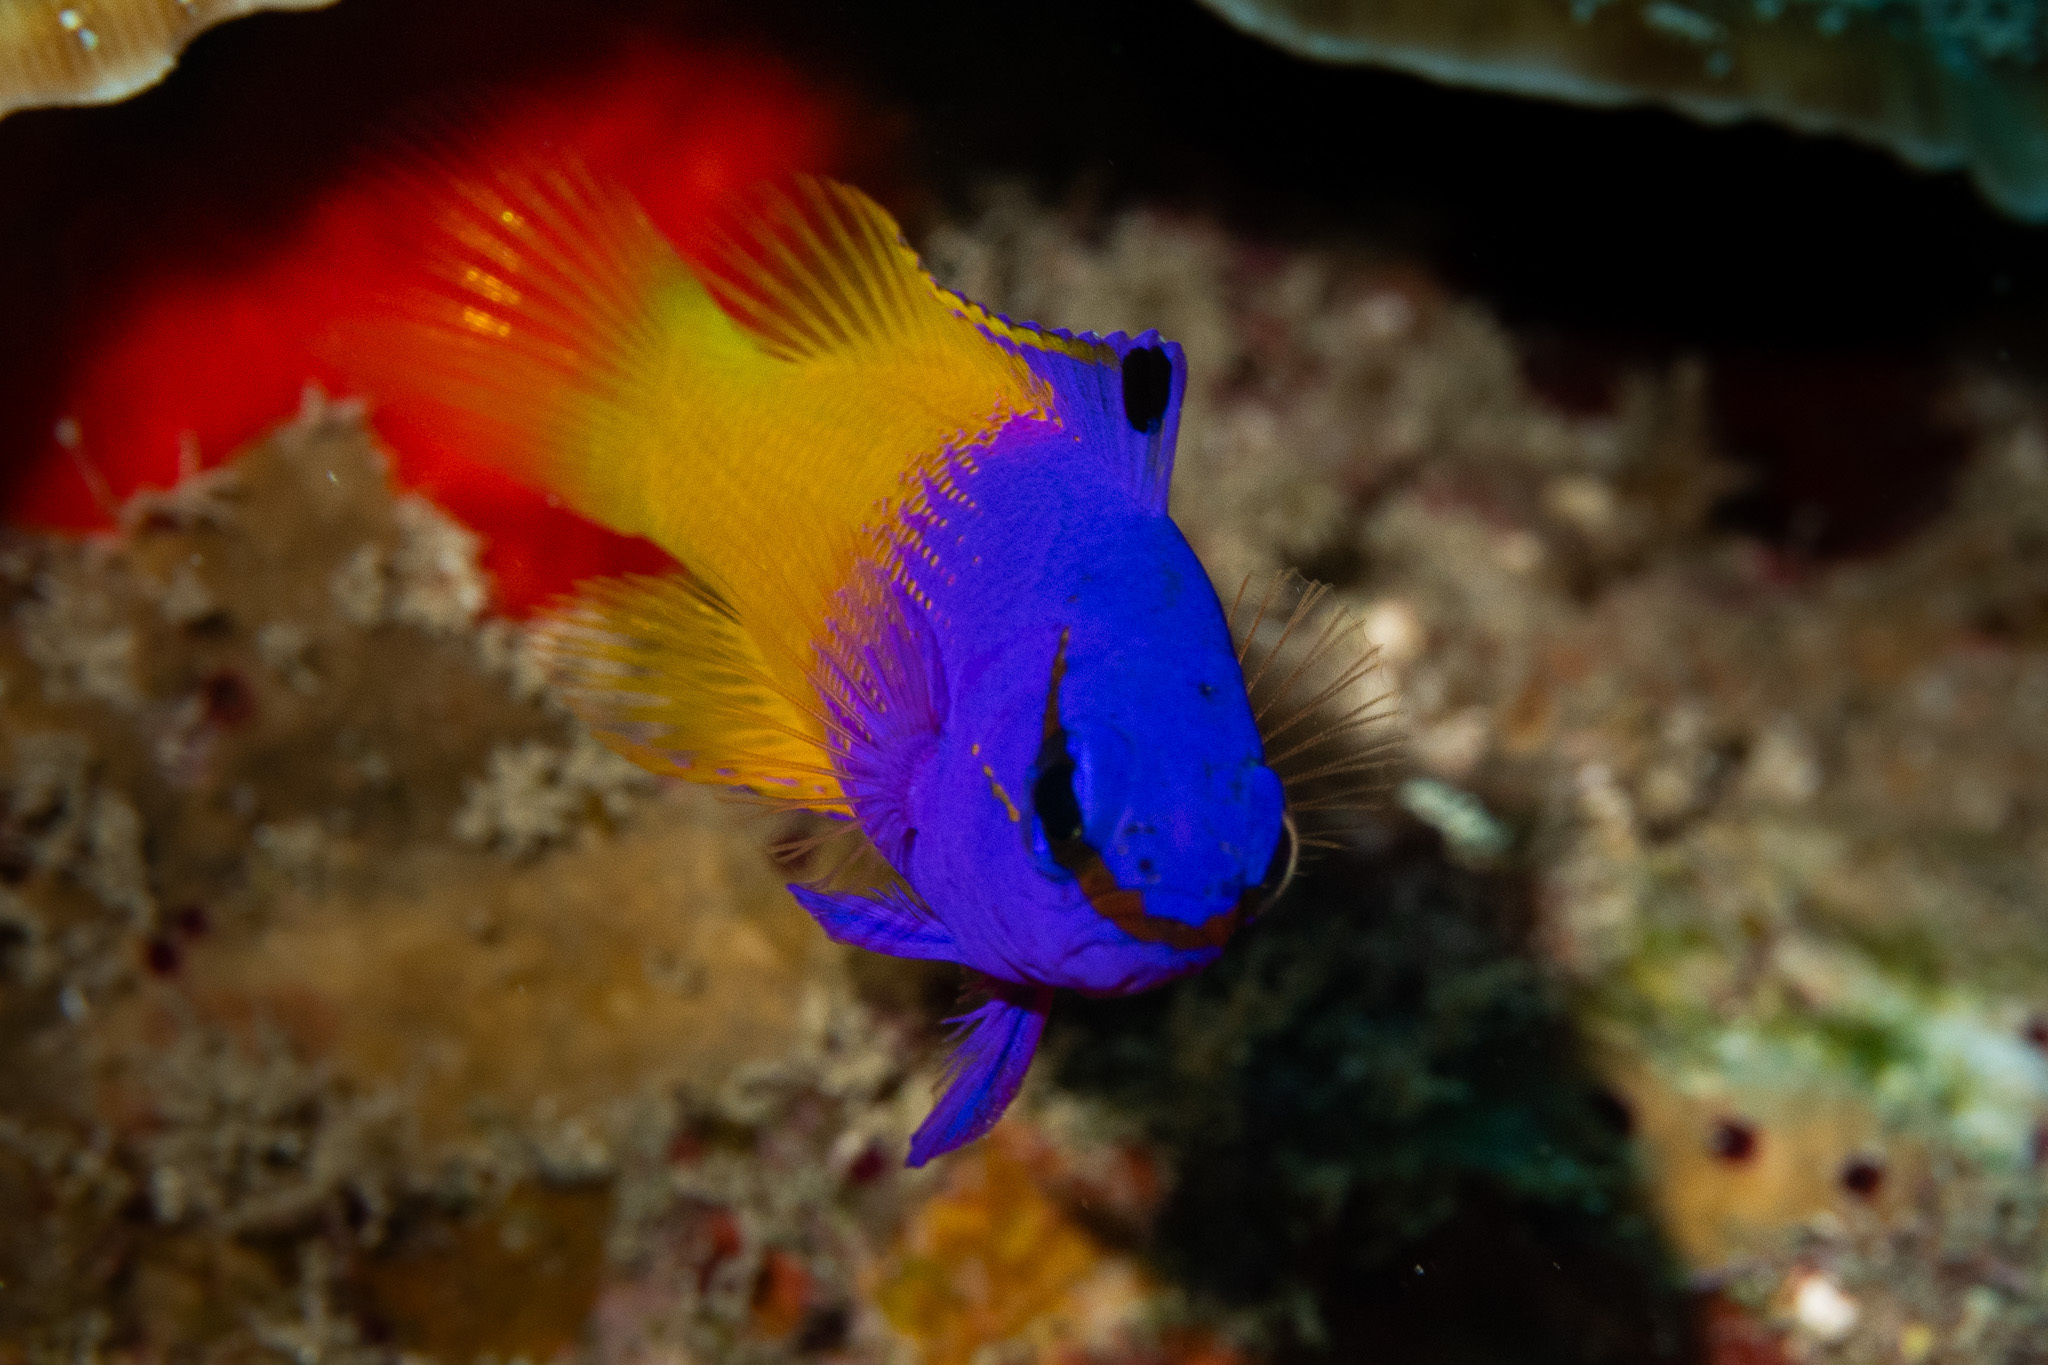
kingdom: Animalia
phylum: Chordata
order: Perciformes
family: Grammatidae
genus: Gramma
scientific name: Gramma loreto
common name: Fairy basslet
